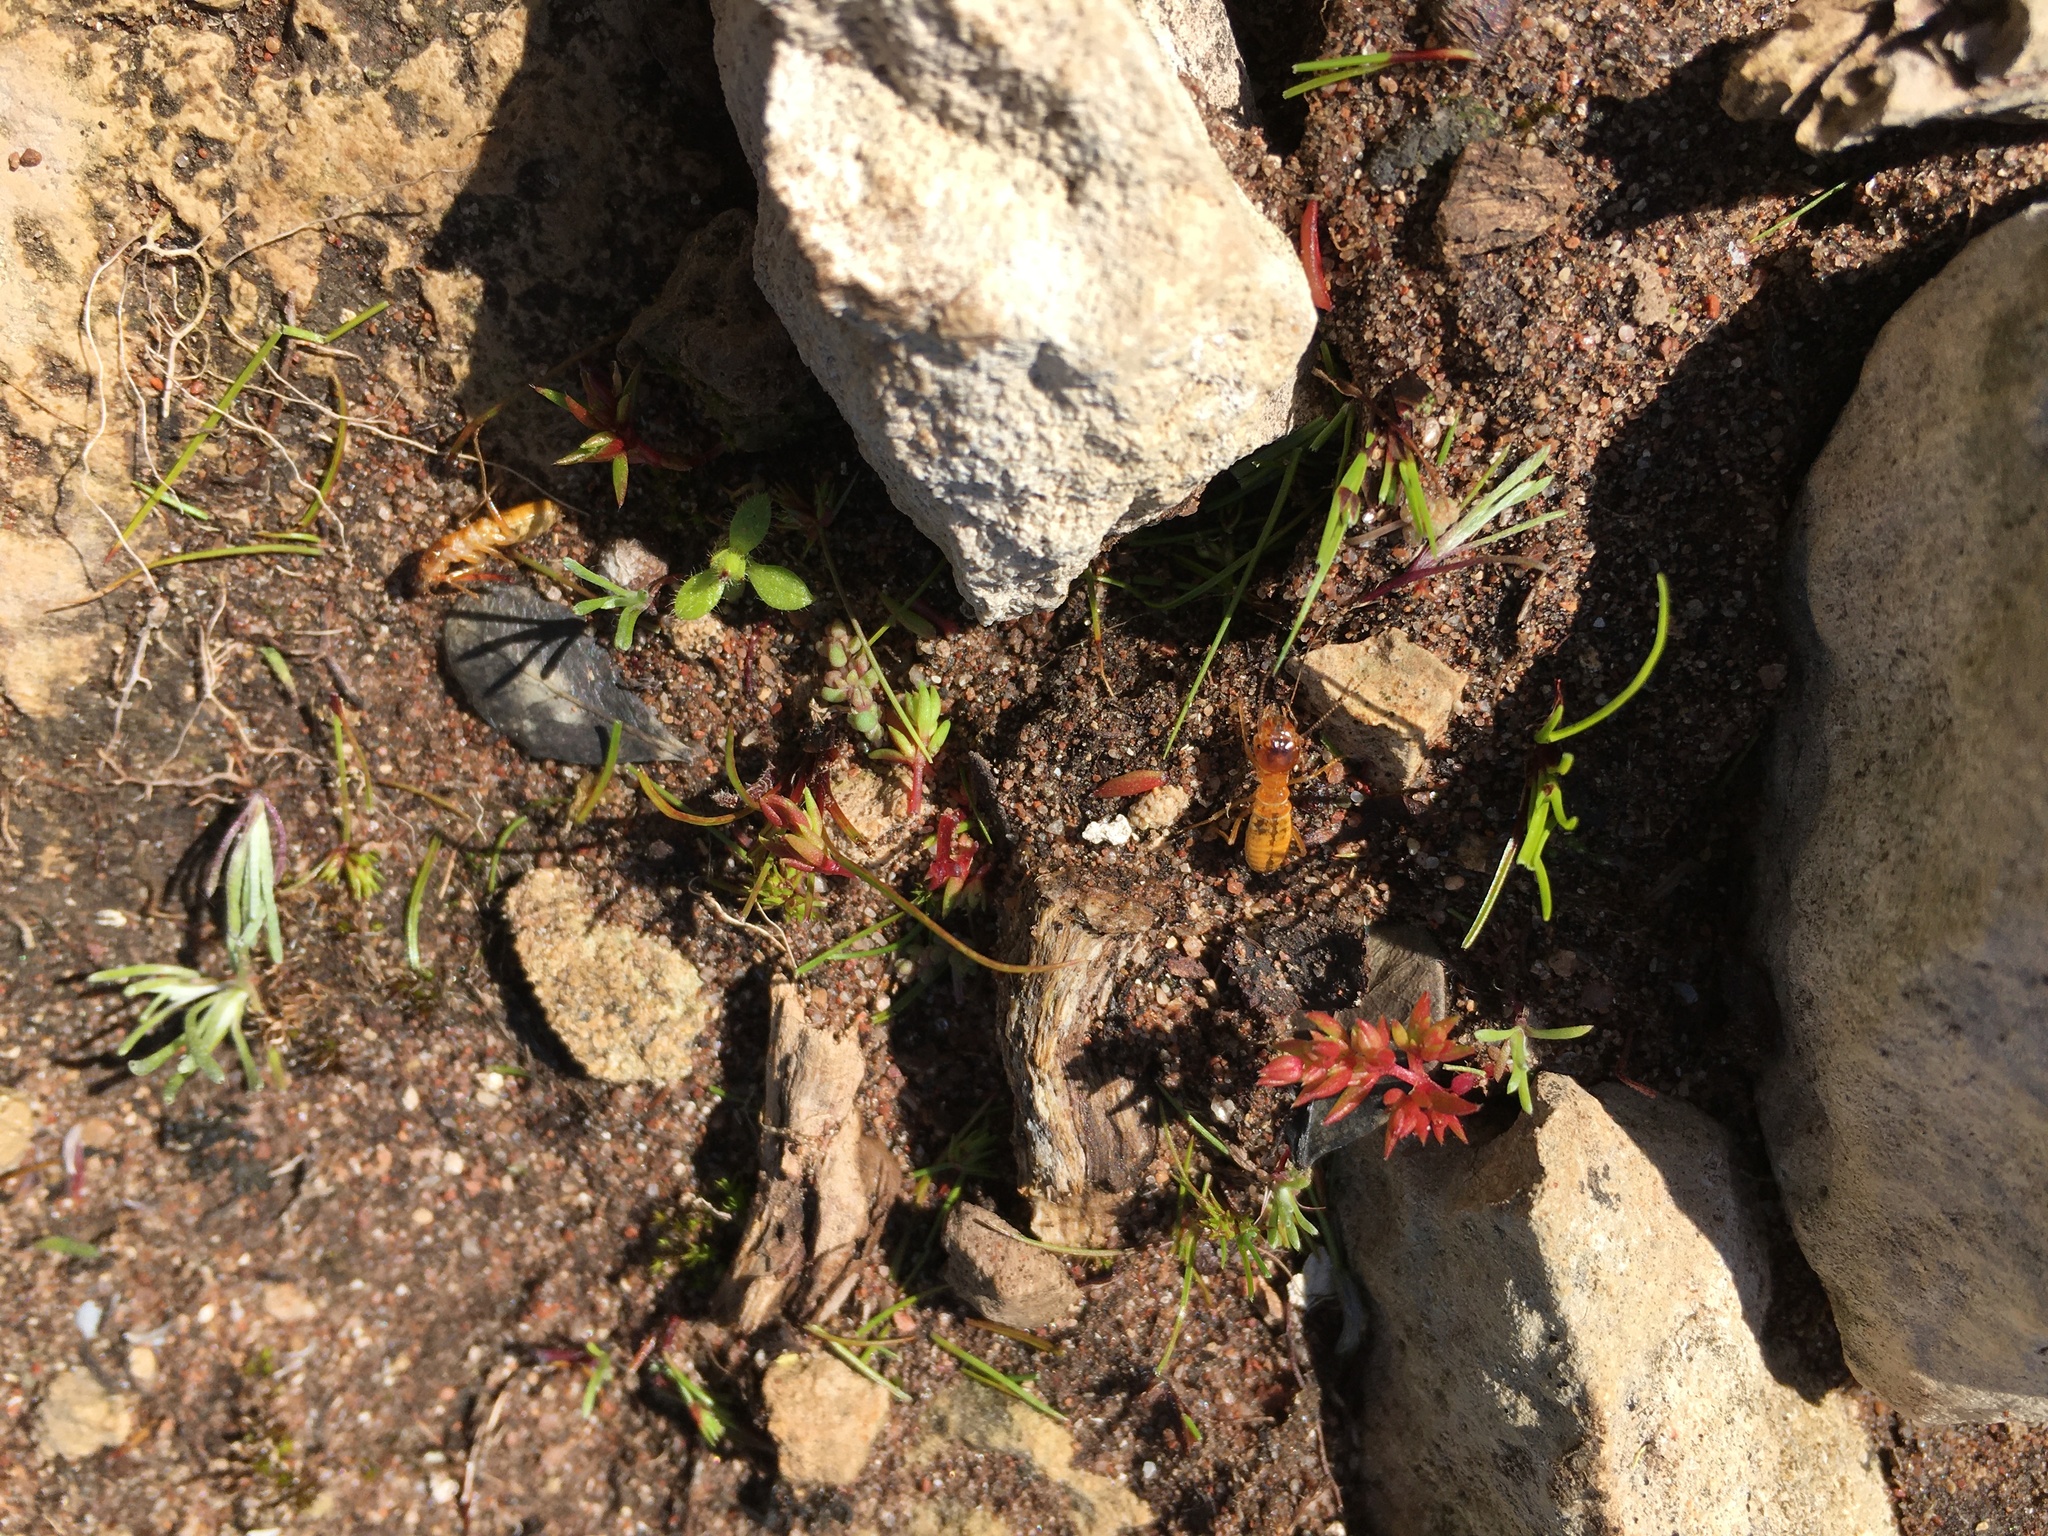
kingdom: Animalia
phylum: Arthropoda
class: Insecta
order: Blattodea
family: Hodotermitidae
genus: Microhodotermes
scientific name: Microhodotermes viator
